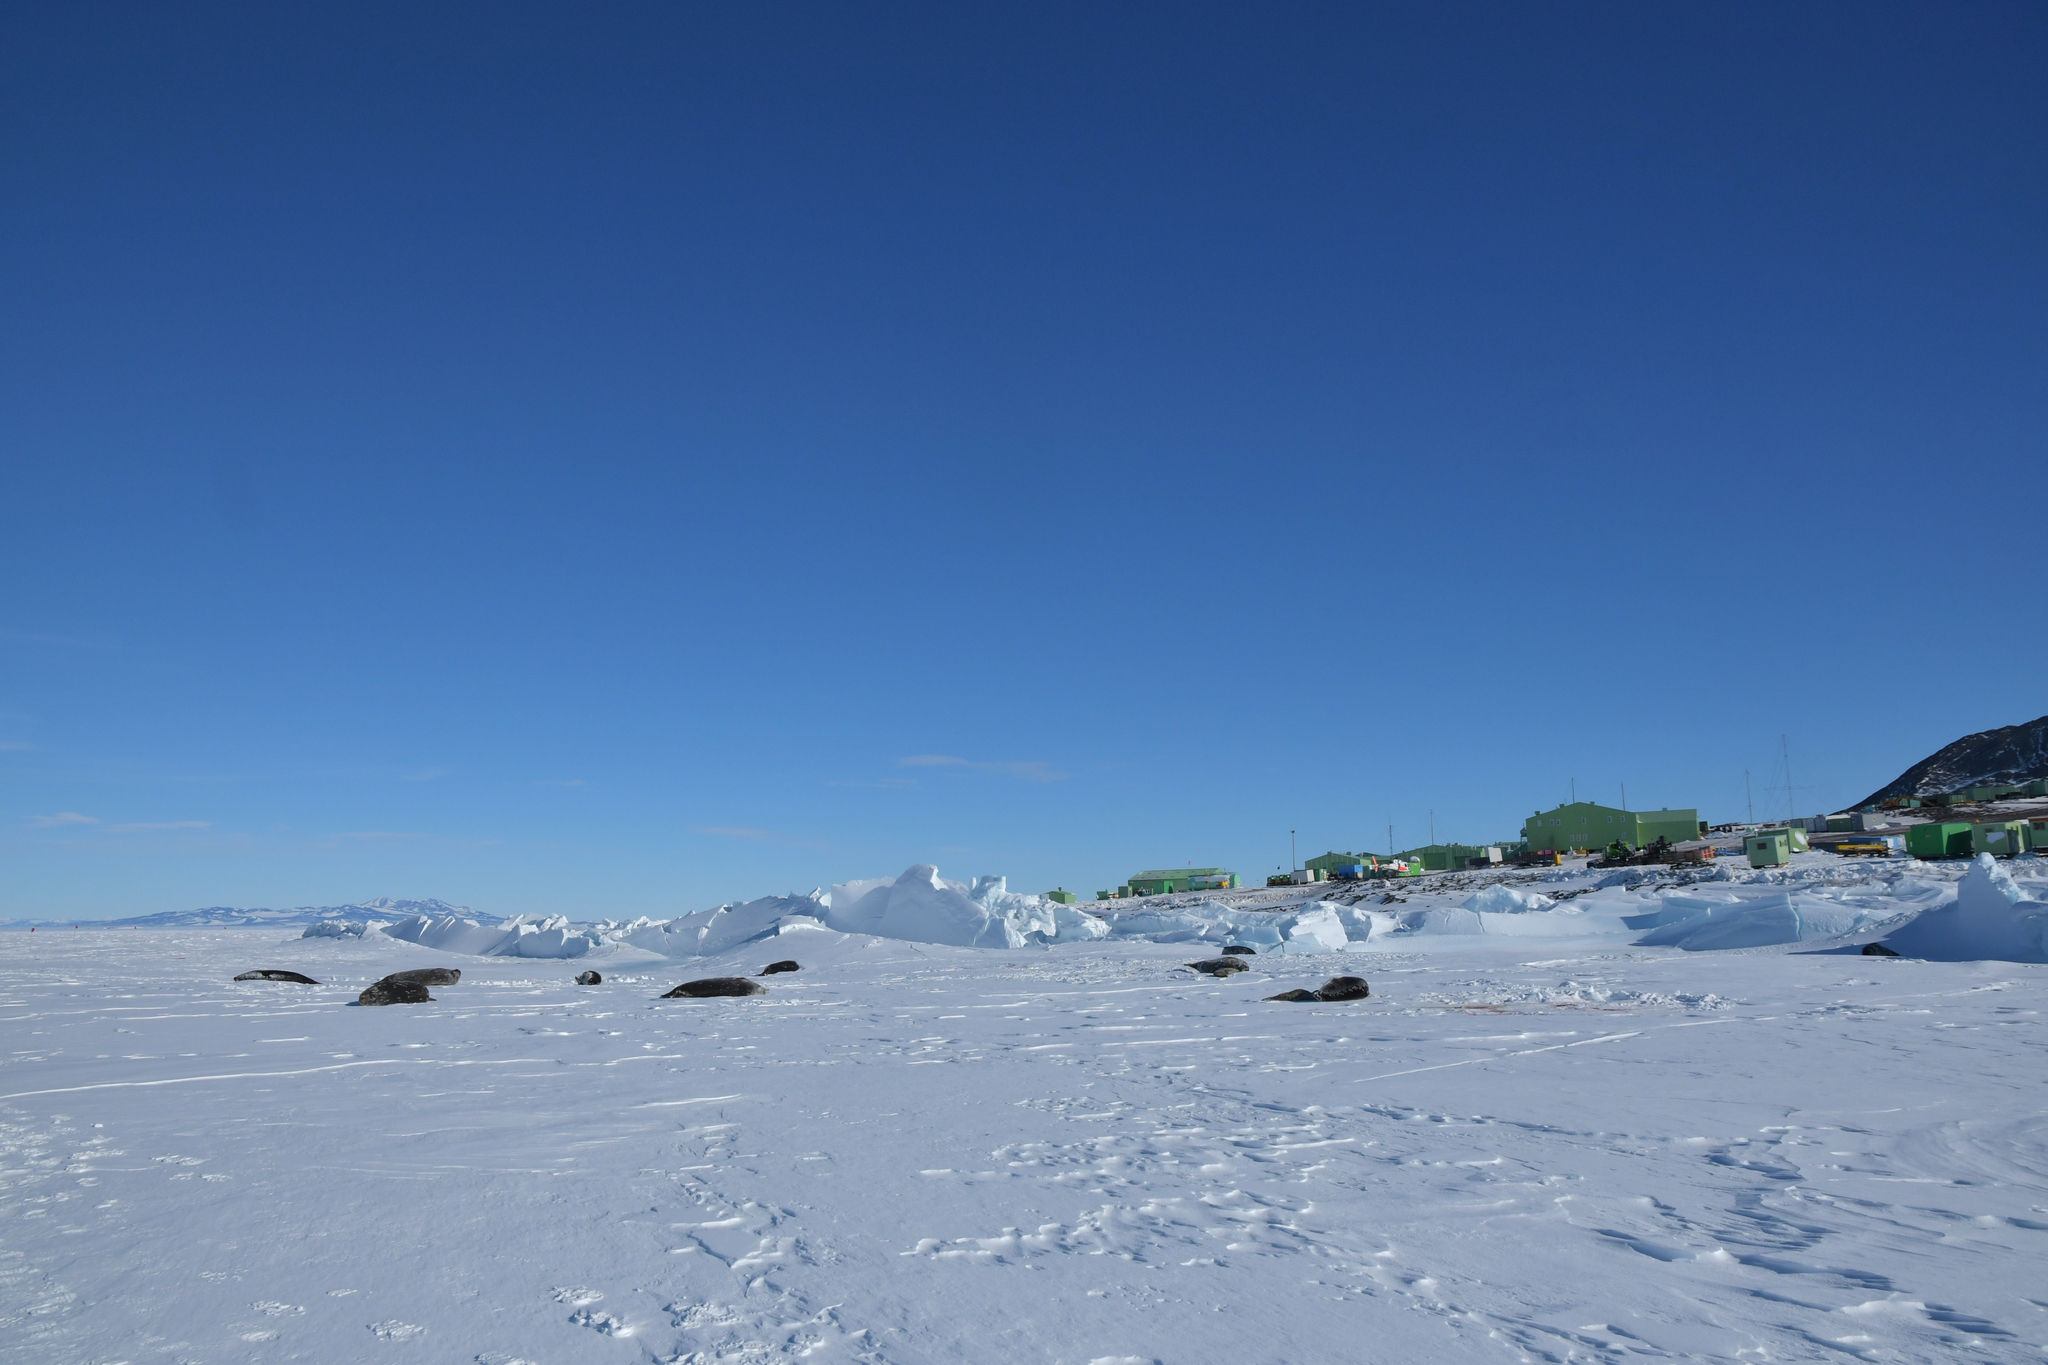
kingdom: Animalia
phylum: Chordata
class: Mammalia
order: Carnivora
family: Phocidae
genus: Leptonychotes
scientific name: Leptonychotes weddellii
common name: Weddell seal
